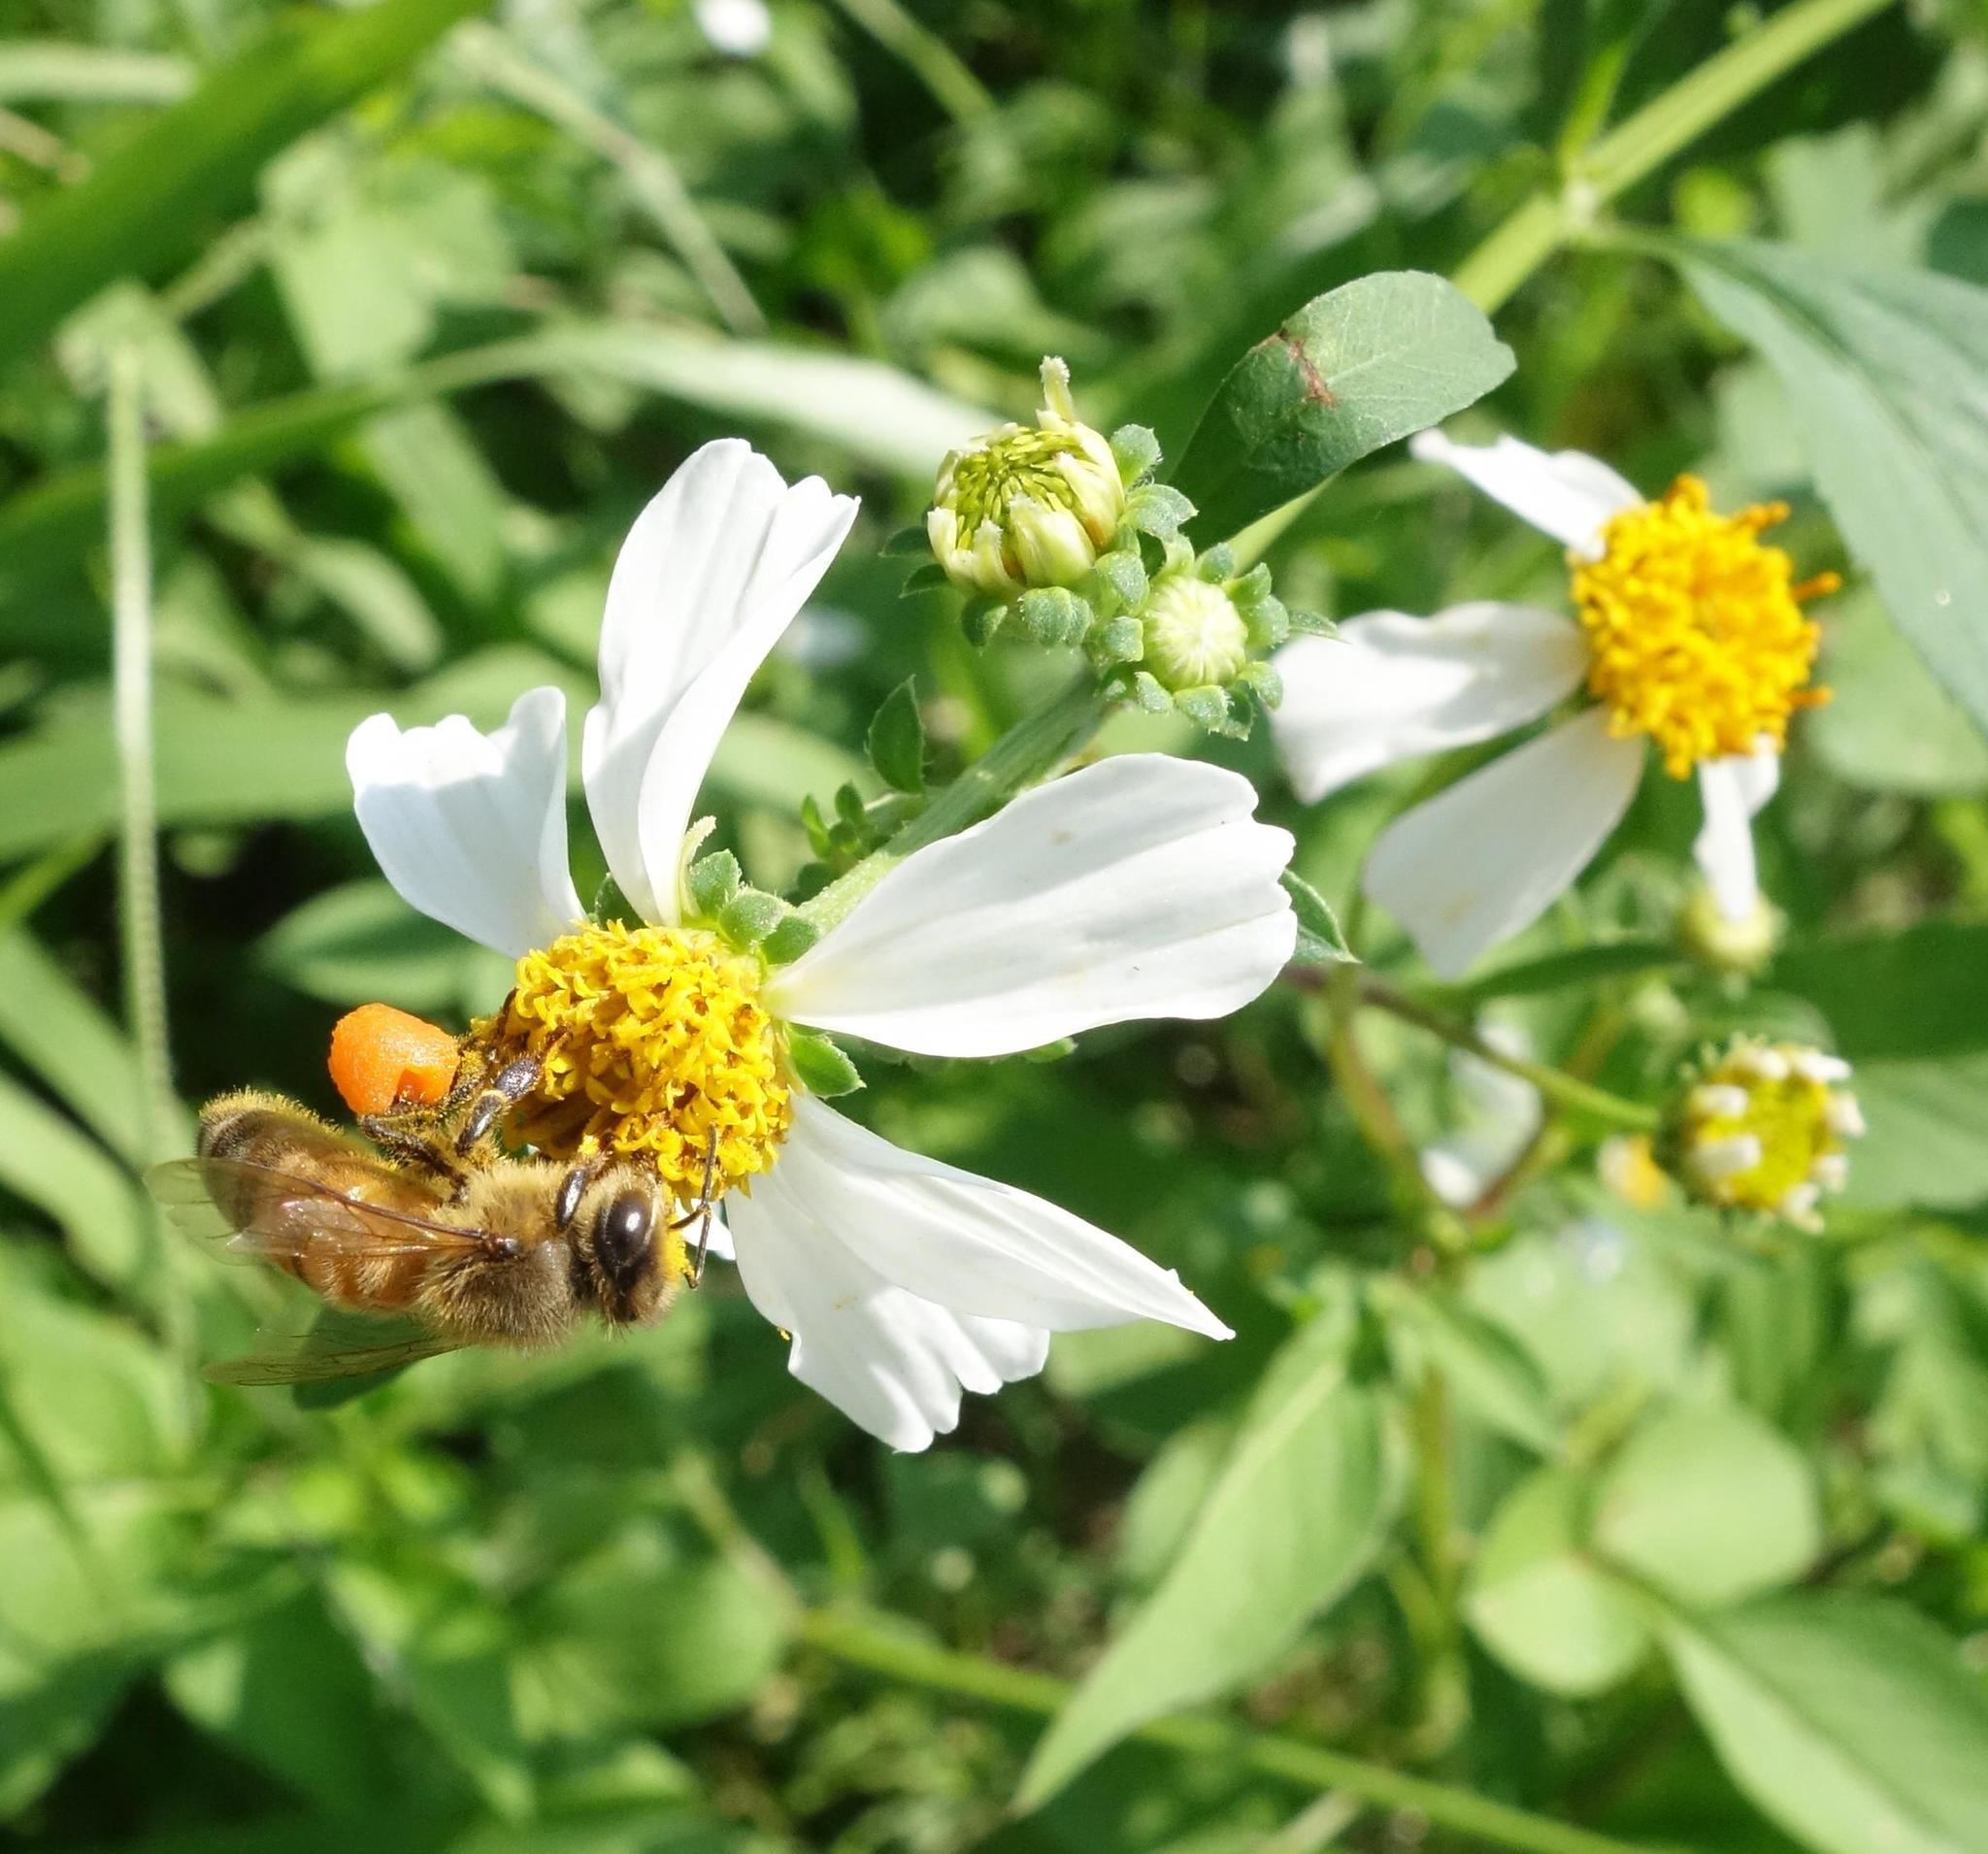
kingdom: Animalia
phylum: Arthropoda
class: Insecta
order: Hymenoptera
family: Apidae
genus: Apis
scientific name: Apis mellifera
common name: Honey bee
